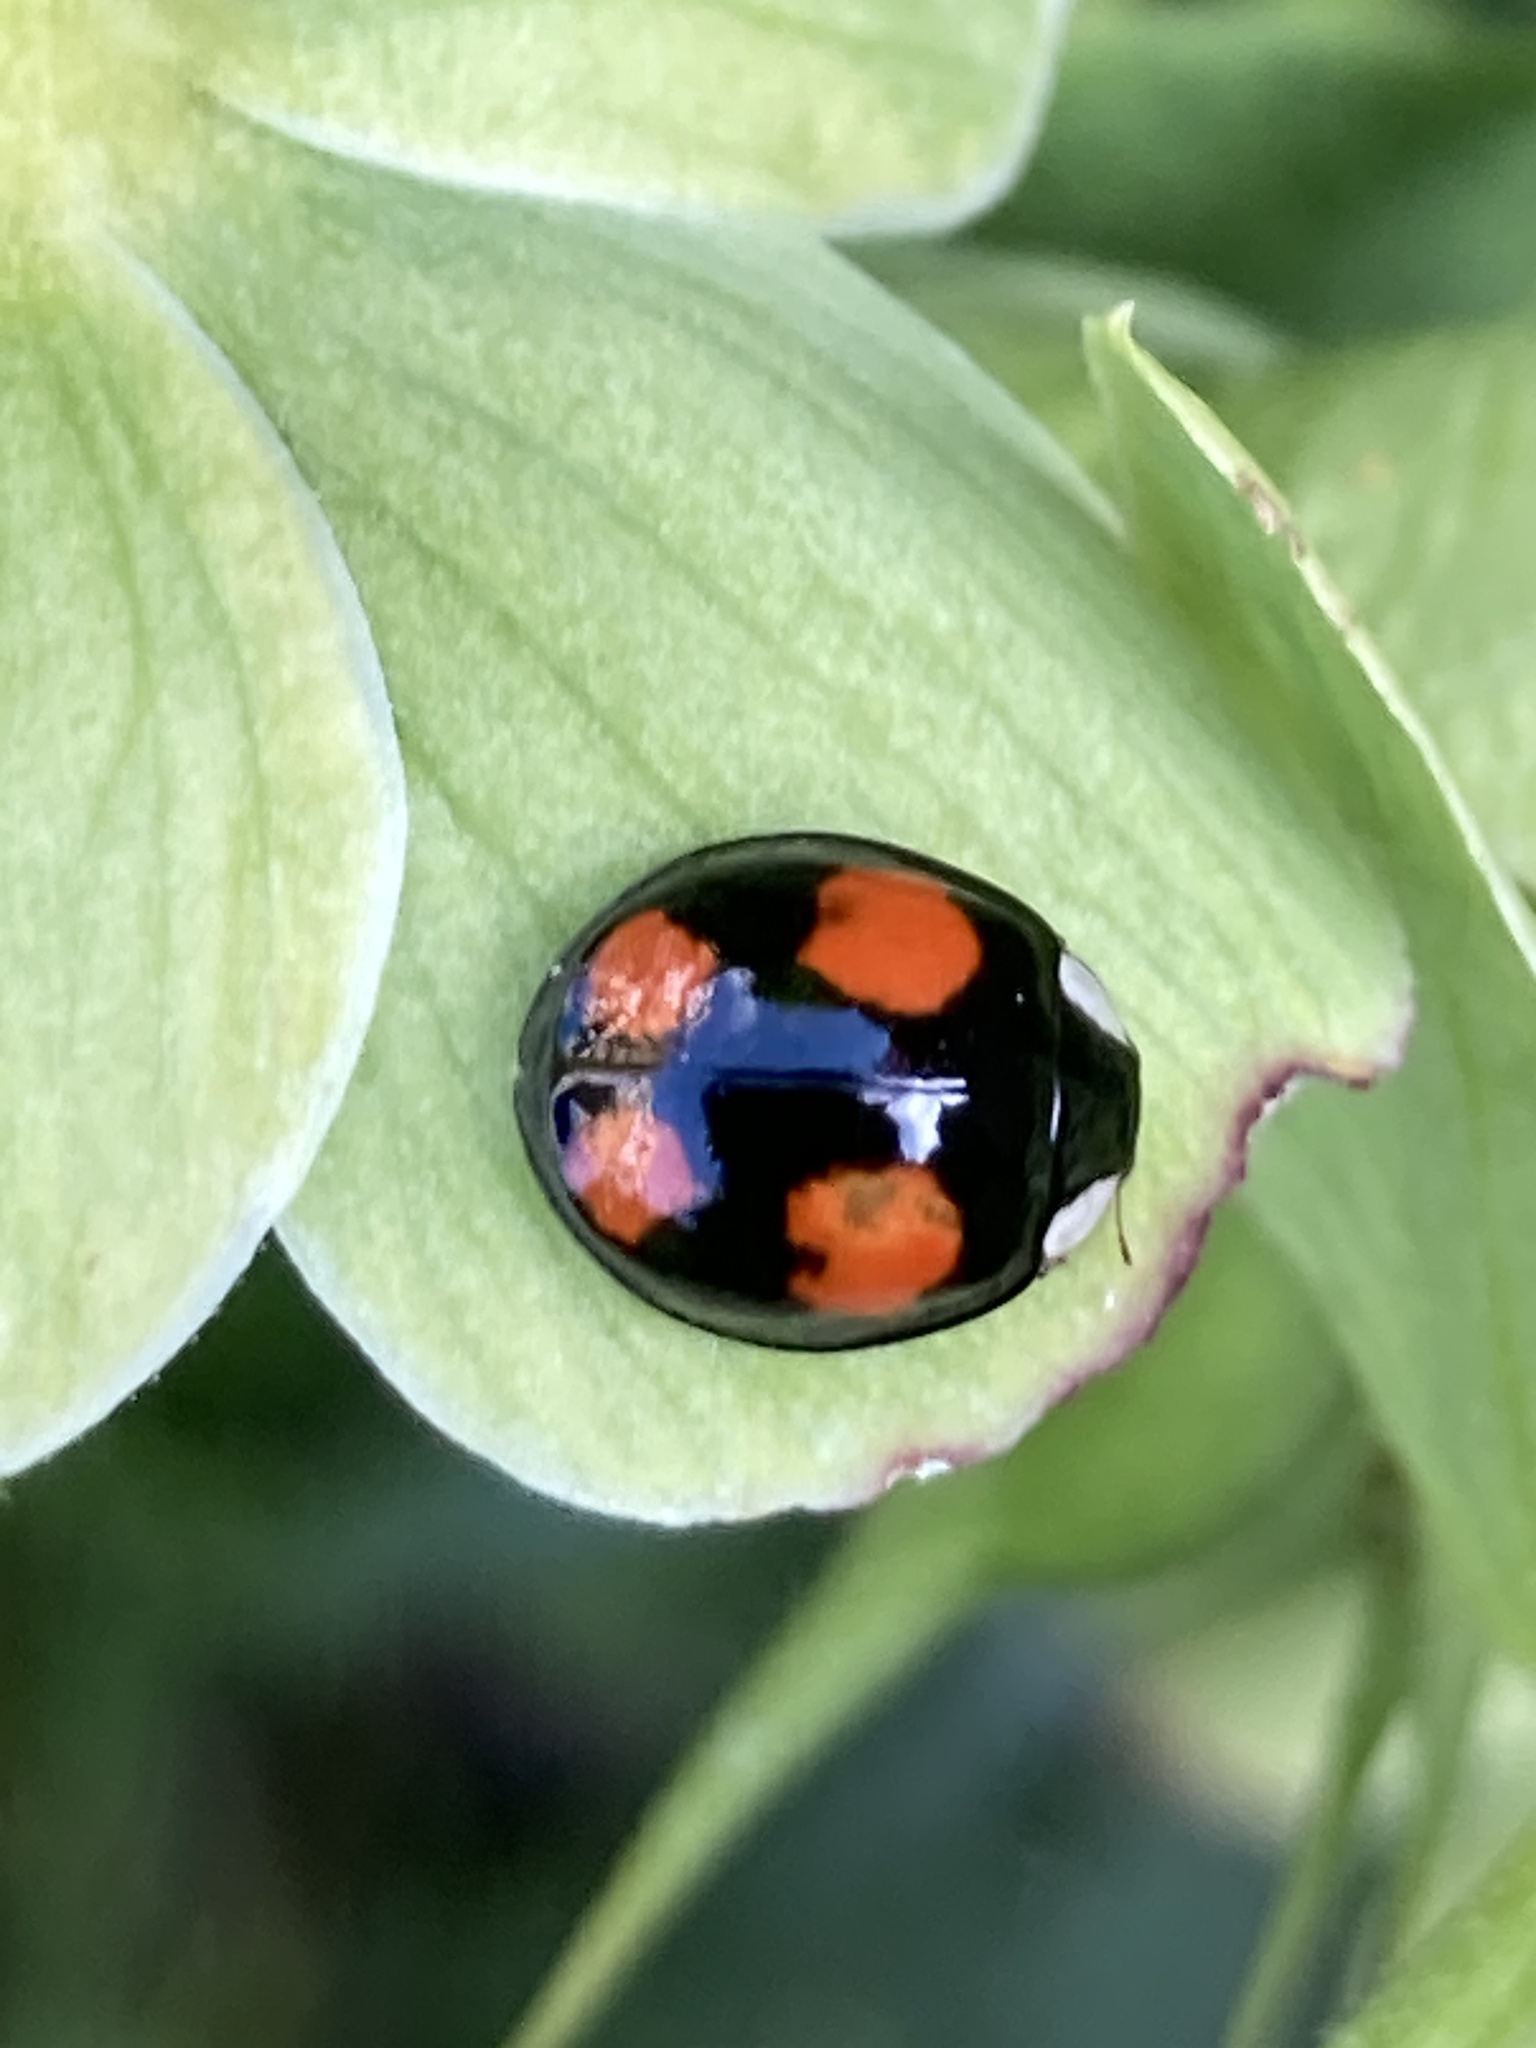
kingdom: Animalia
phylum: Arthropoda
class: Insecta
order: Coleoptera
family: Coccinellidae
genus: Harmonia
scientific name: Harmonia axyridis
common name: Harlequin ladybird
